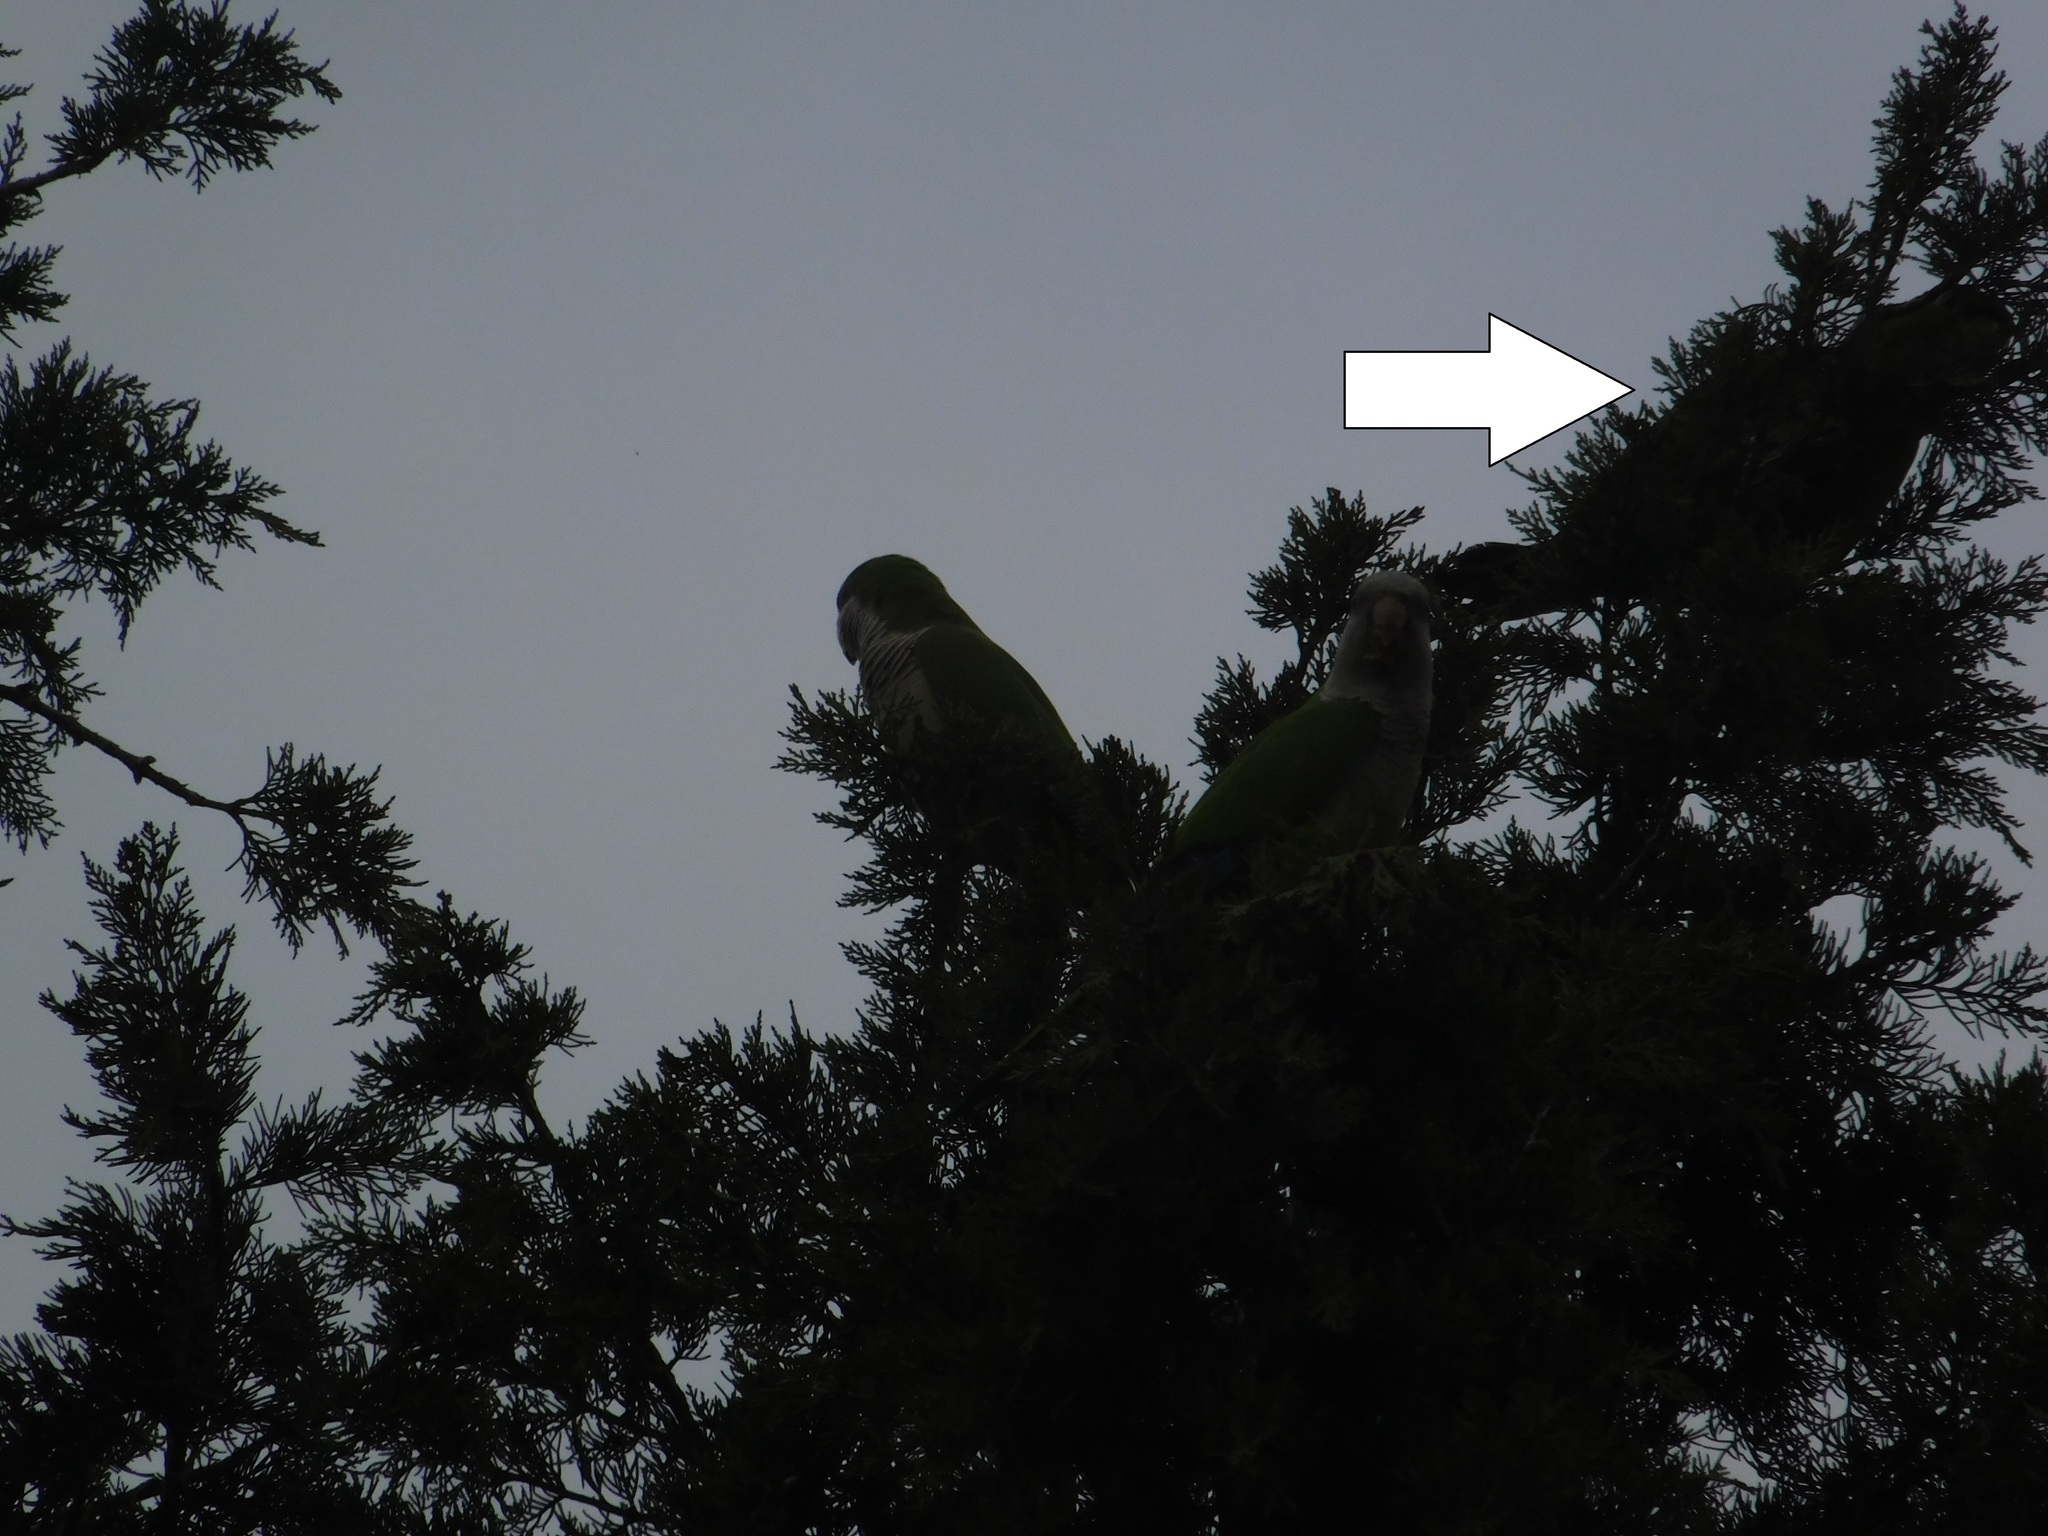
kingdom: Animalia
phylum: Chordata
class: Aves
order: Psittaciformes
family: Psittacidae
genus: Aratinga
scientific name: Aratinga leucophthalma
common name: White-eyed parakeet
